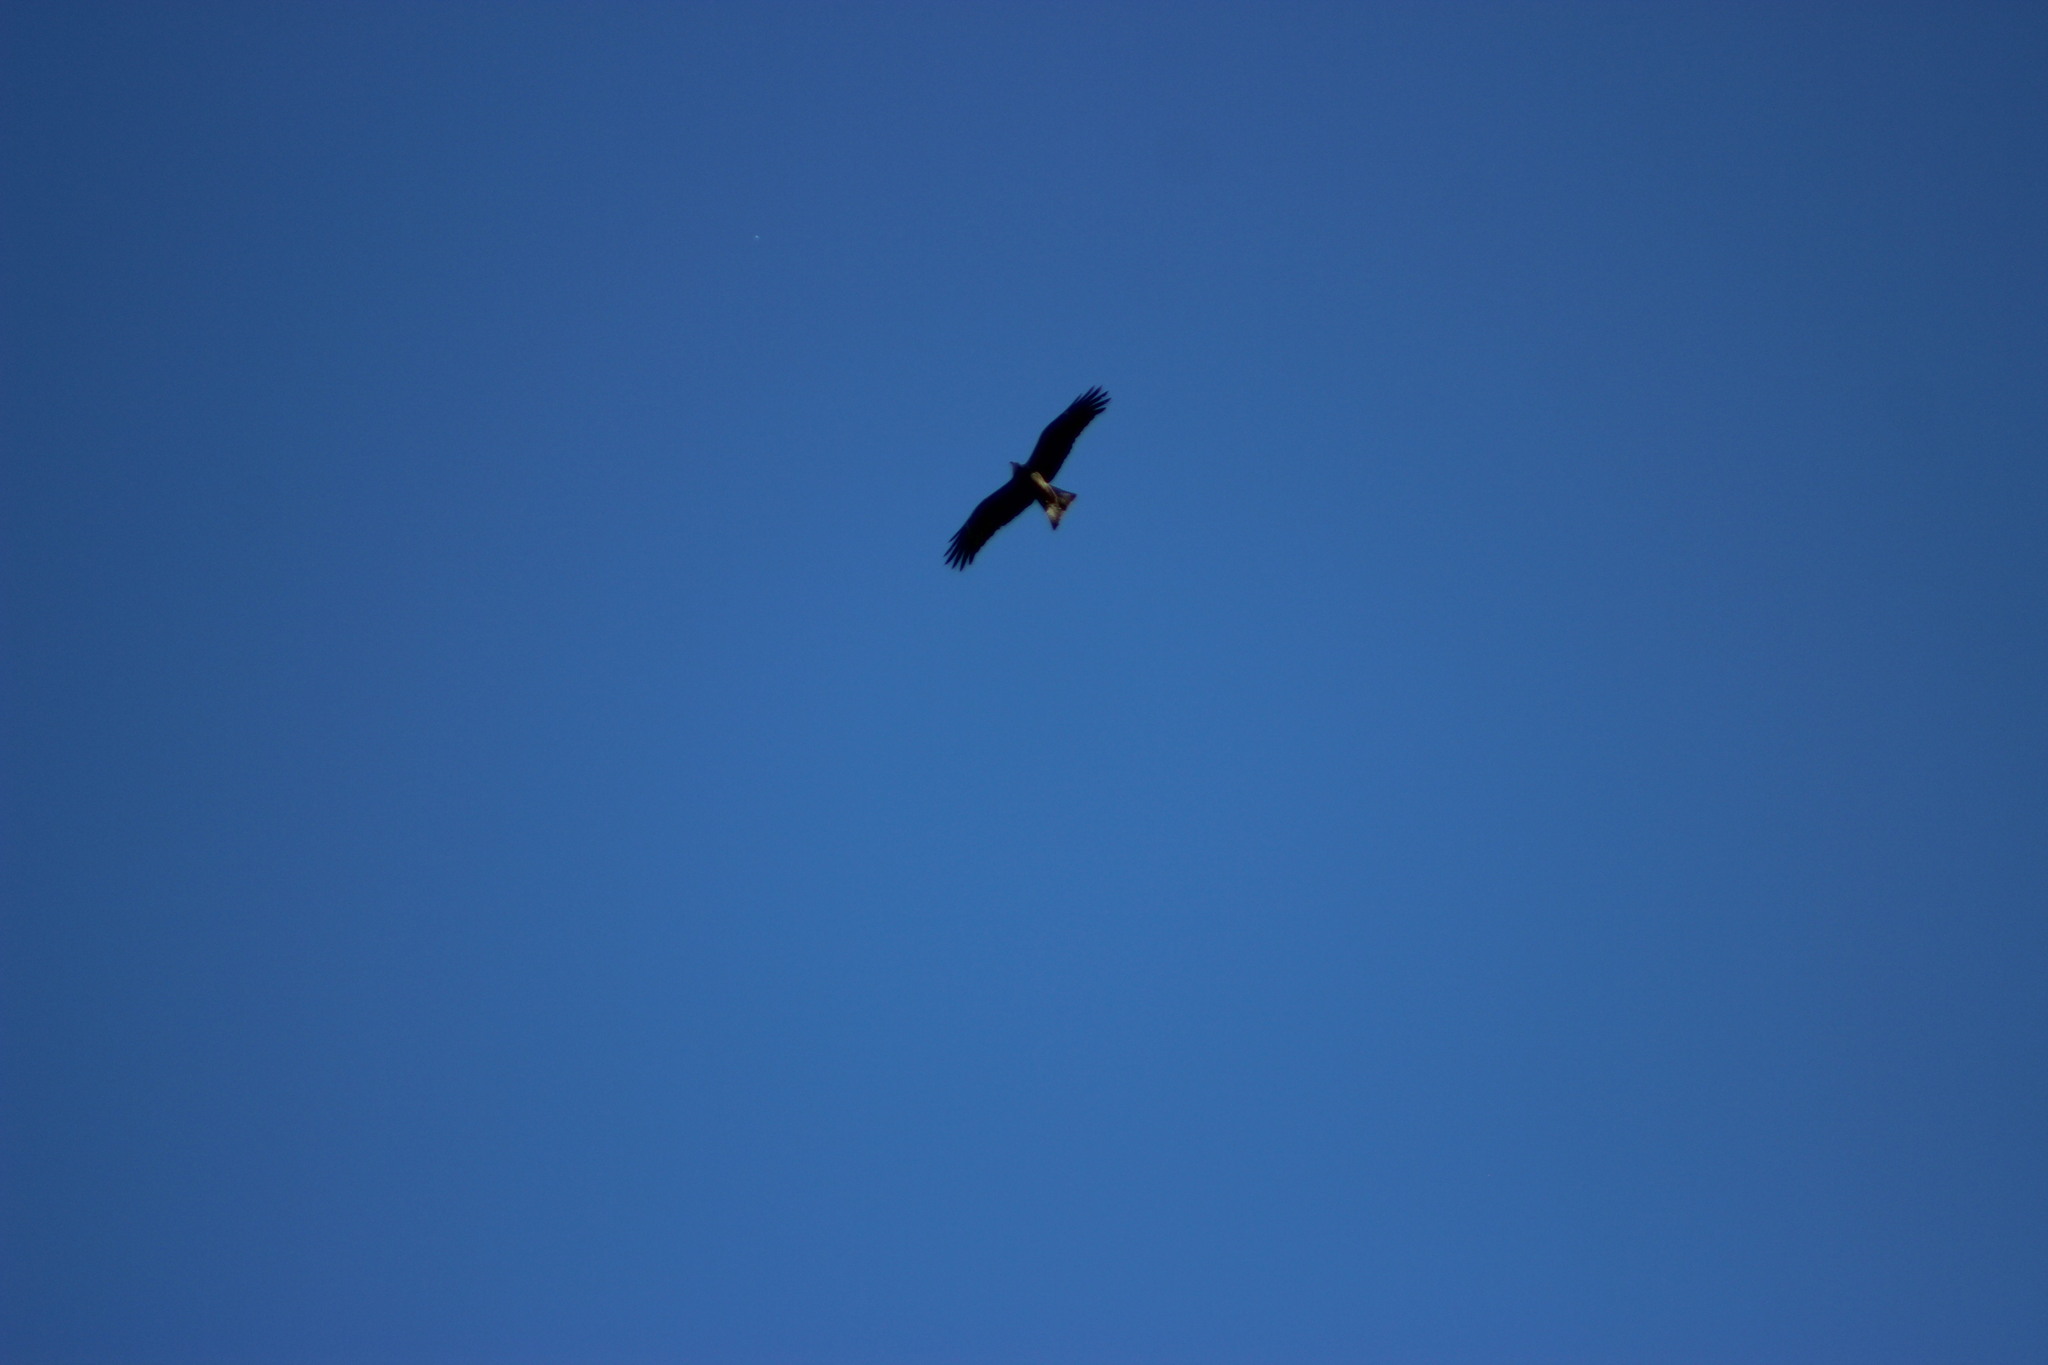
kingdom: Animalia
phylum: Chordata
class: Aves
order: Accipitriformes
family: Accipitridae
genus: Milvus
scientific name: Milvus migrans
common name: Black kite
